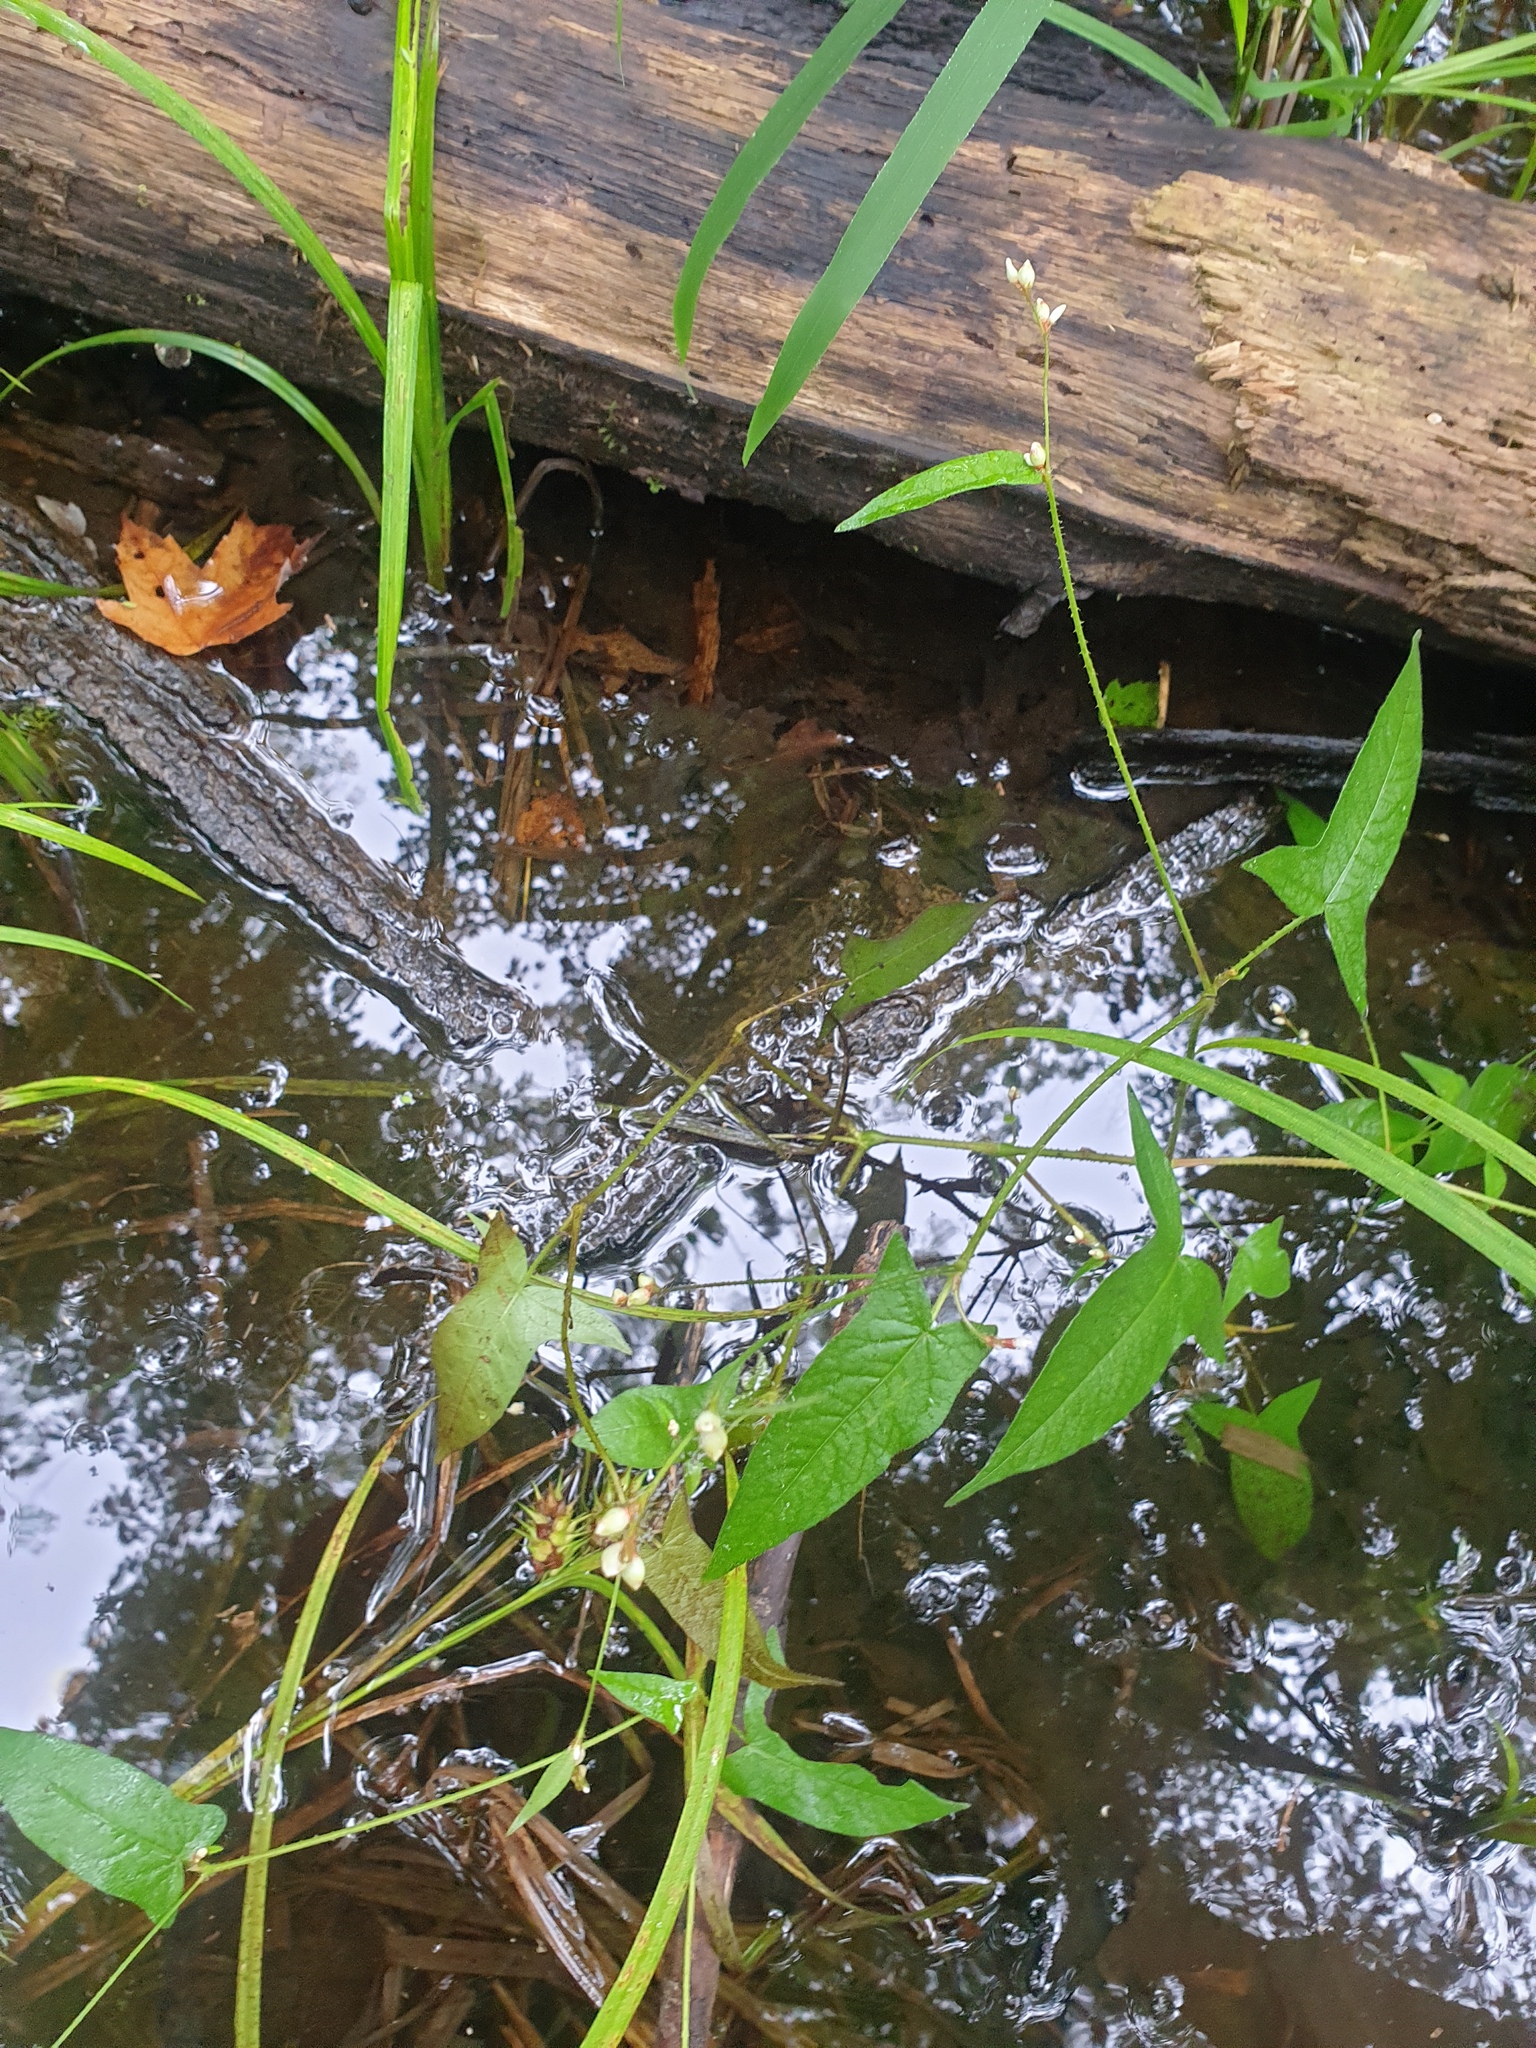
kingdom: Plantae
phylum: Tracheophyta
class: Magnoliopsida
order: Caryophyllales
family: Polygonaceae
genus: Persicaria
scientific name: Persicaria arifolia
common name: Halberd-leaved tear-thumb
